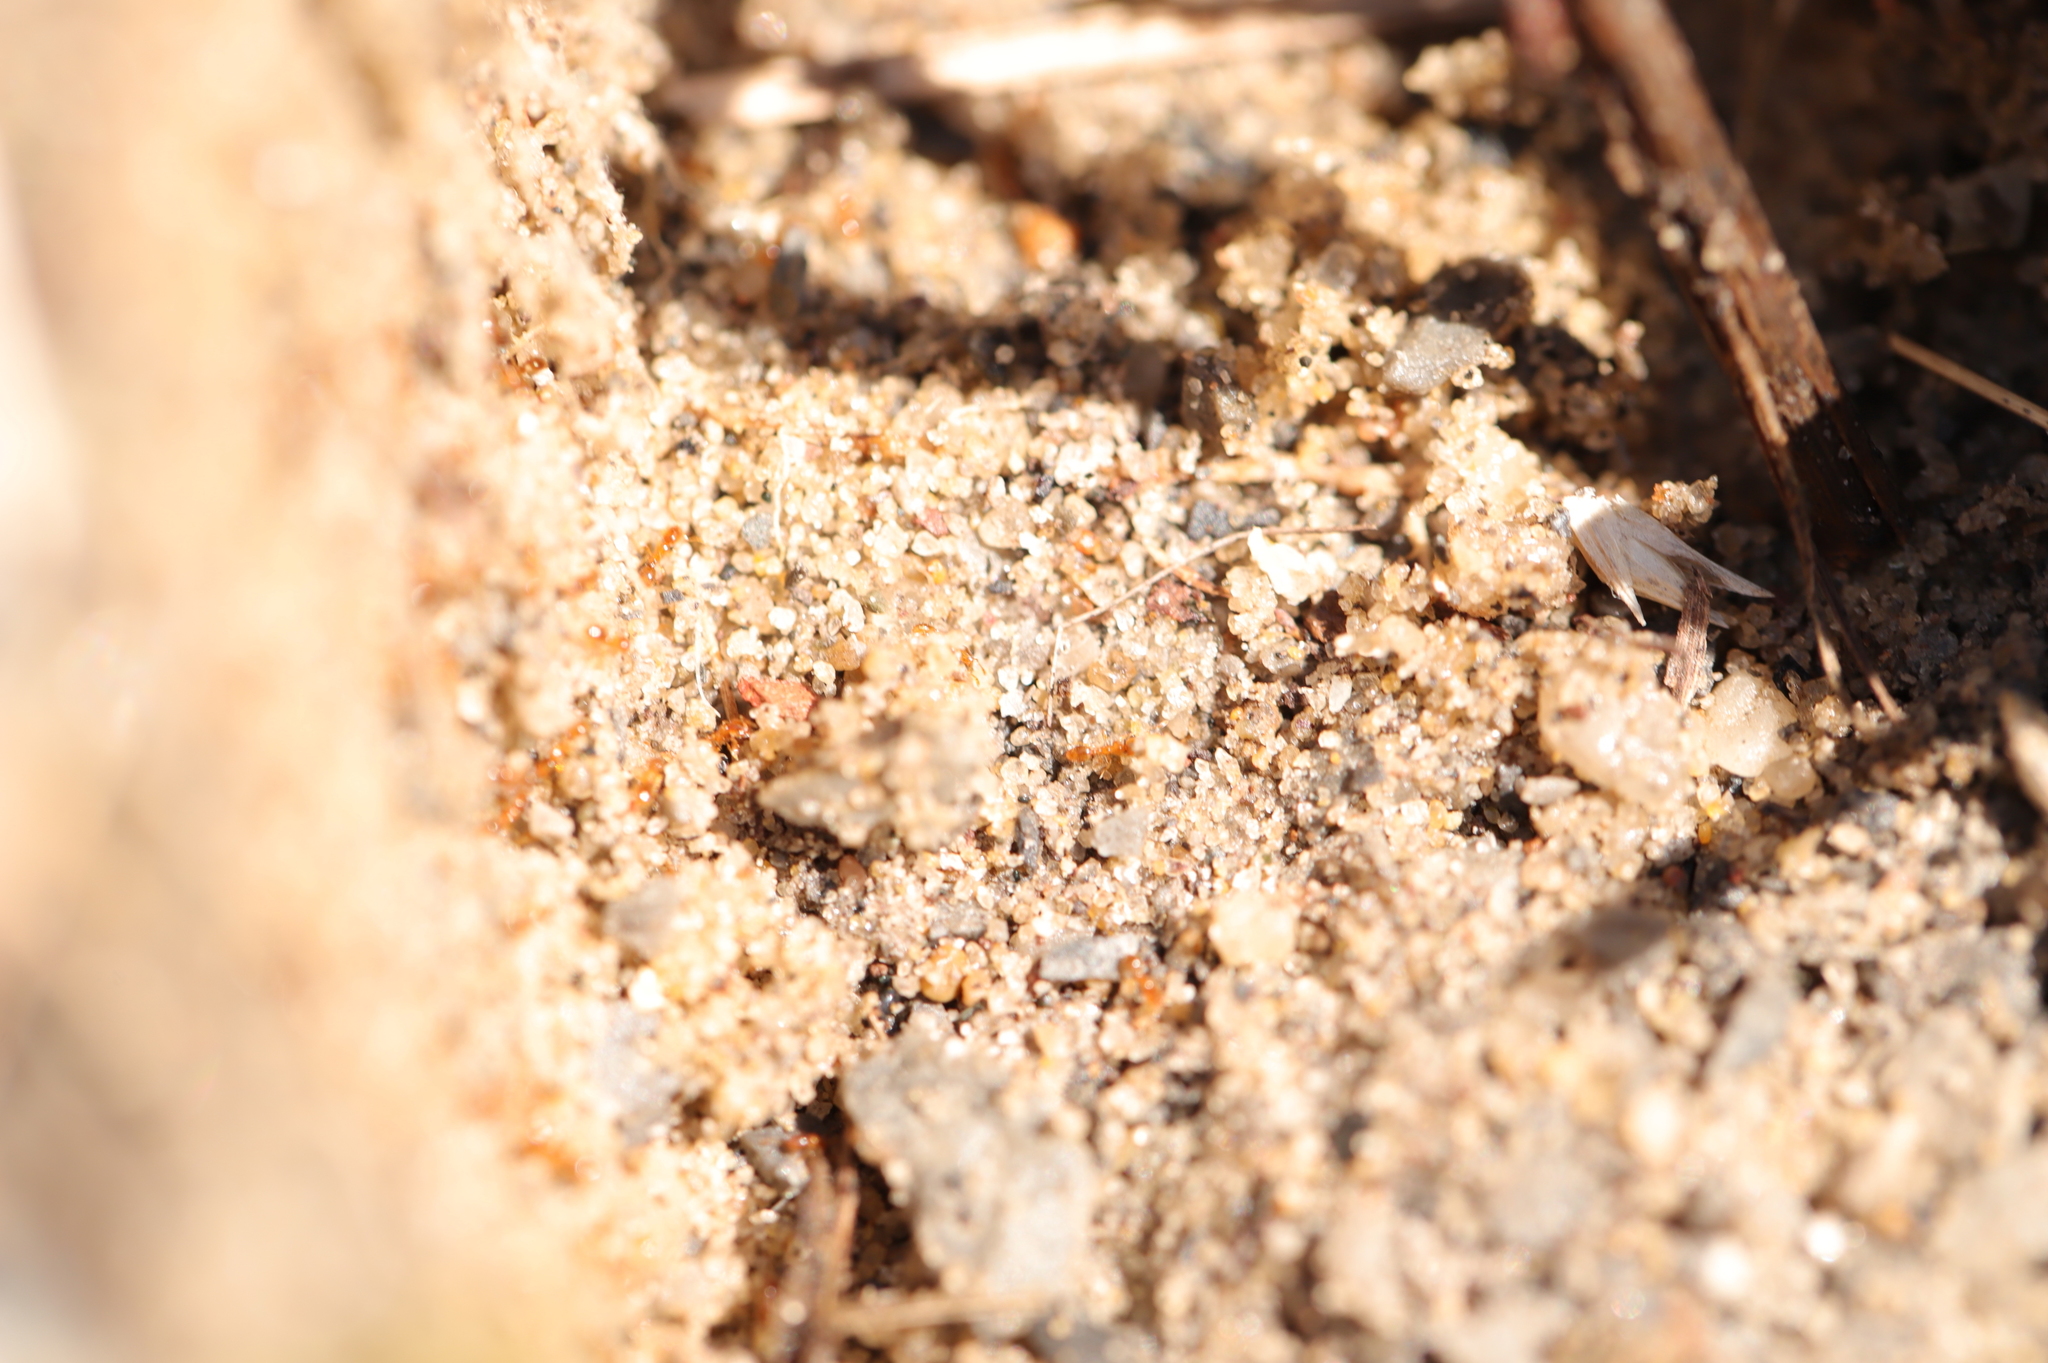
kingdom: Animalia
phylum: Arthropoda
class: Insecta
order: Hymenoptera
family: Formicidae
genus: Solenopsis
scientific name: Solenopsis molesta
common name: Thief ant
